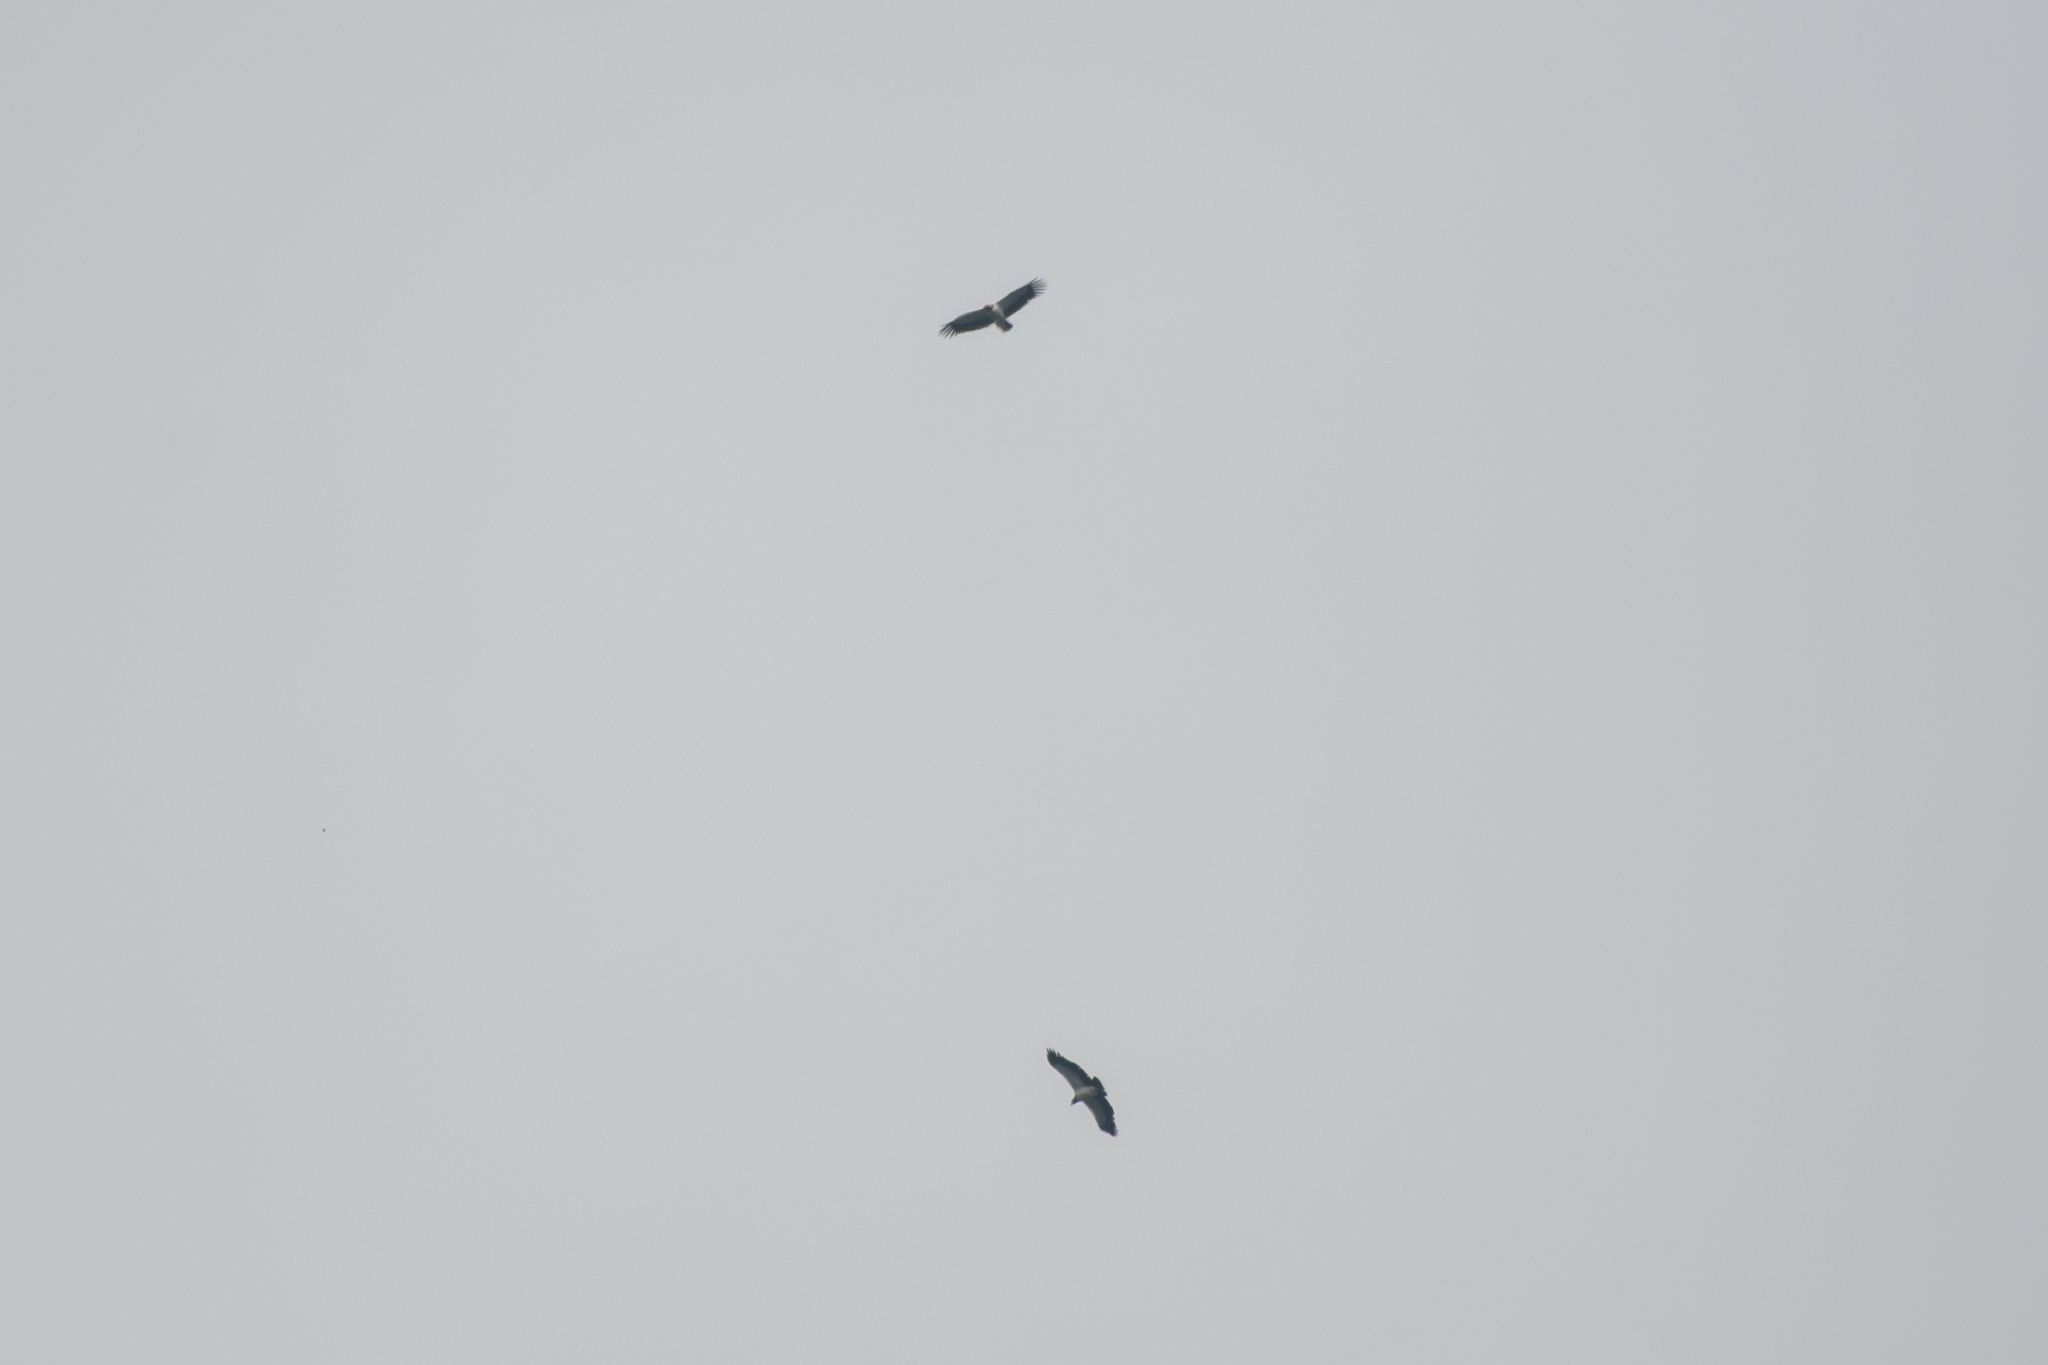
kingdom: Animalia
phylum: Chordata
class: Aves
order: Accipitriformes
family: Cathartidae
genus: Sarcoramphus
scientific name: Sarcoramphus papa
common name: King vulture
